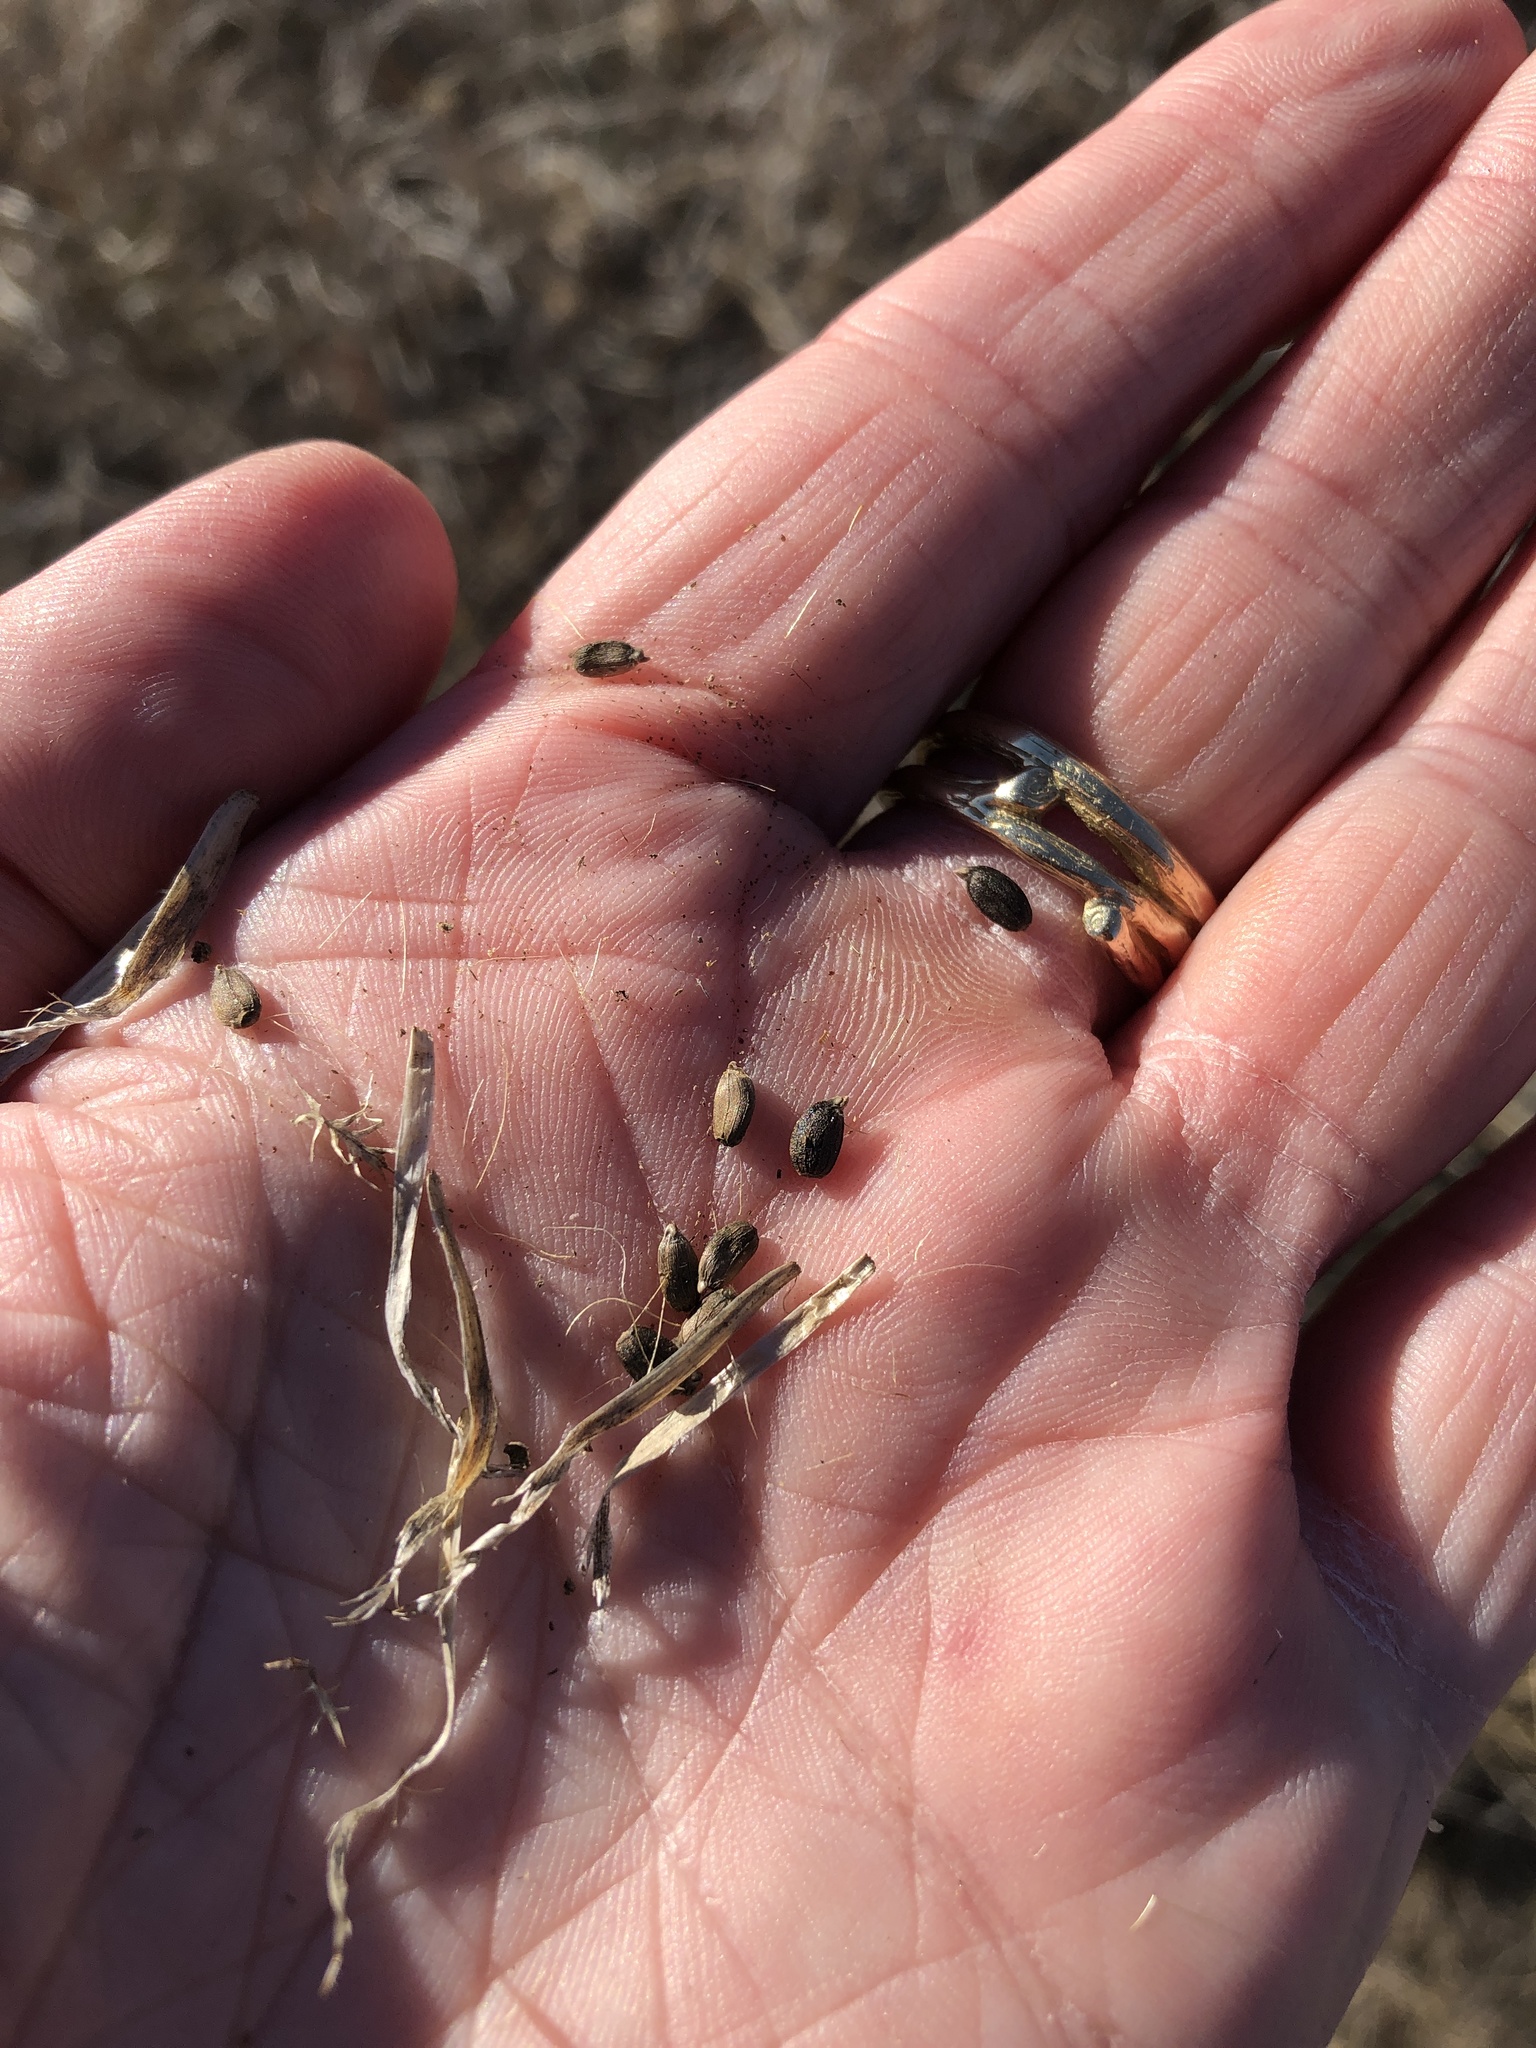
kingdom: Plantae
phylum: Tracheophyta
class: Magnoliopsida
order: Asterales
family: Asteraceae
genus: Plectocephalus
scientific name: Plectocephalus americanus
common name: American basket-flower
